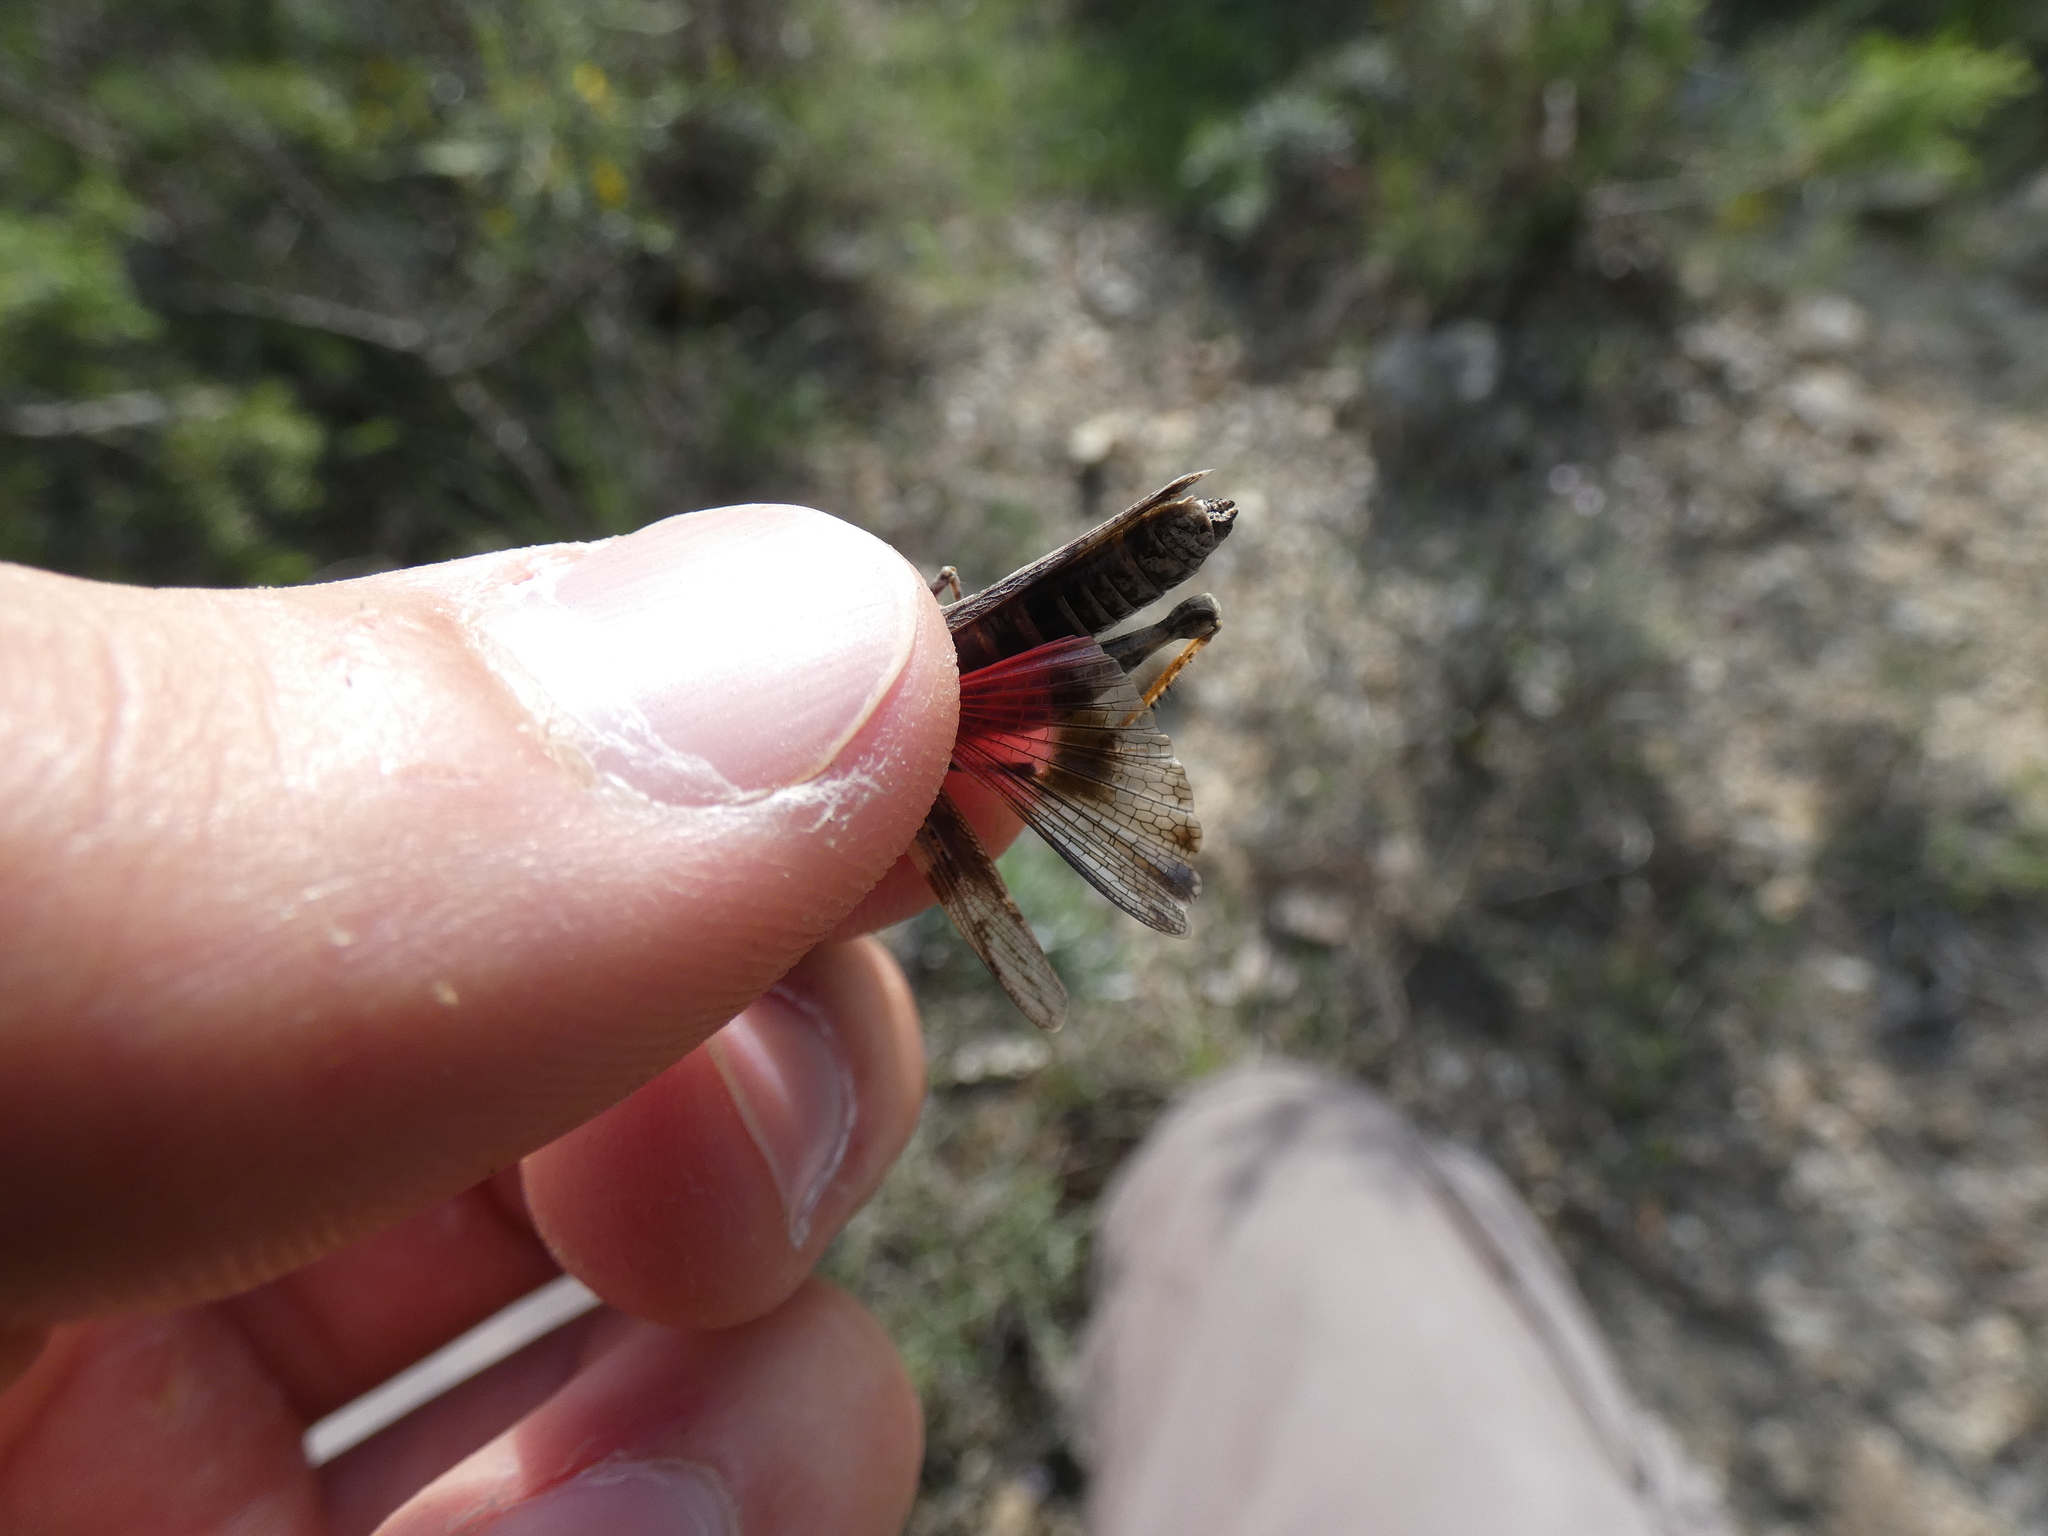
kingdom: Animalia
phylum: Arthropoda
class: Insecta
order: Orthoptera
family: Acrididae
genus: Acrotylus
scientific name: Acrotylus fischeri
